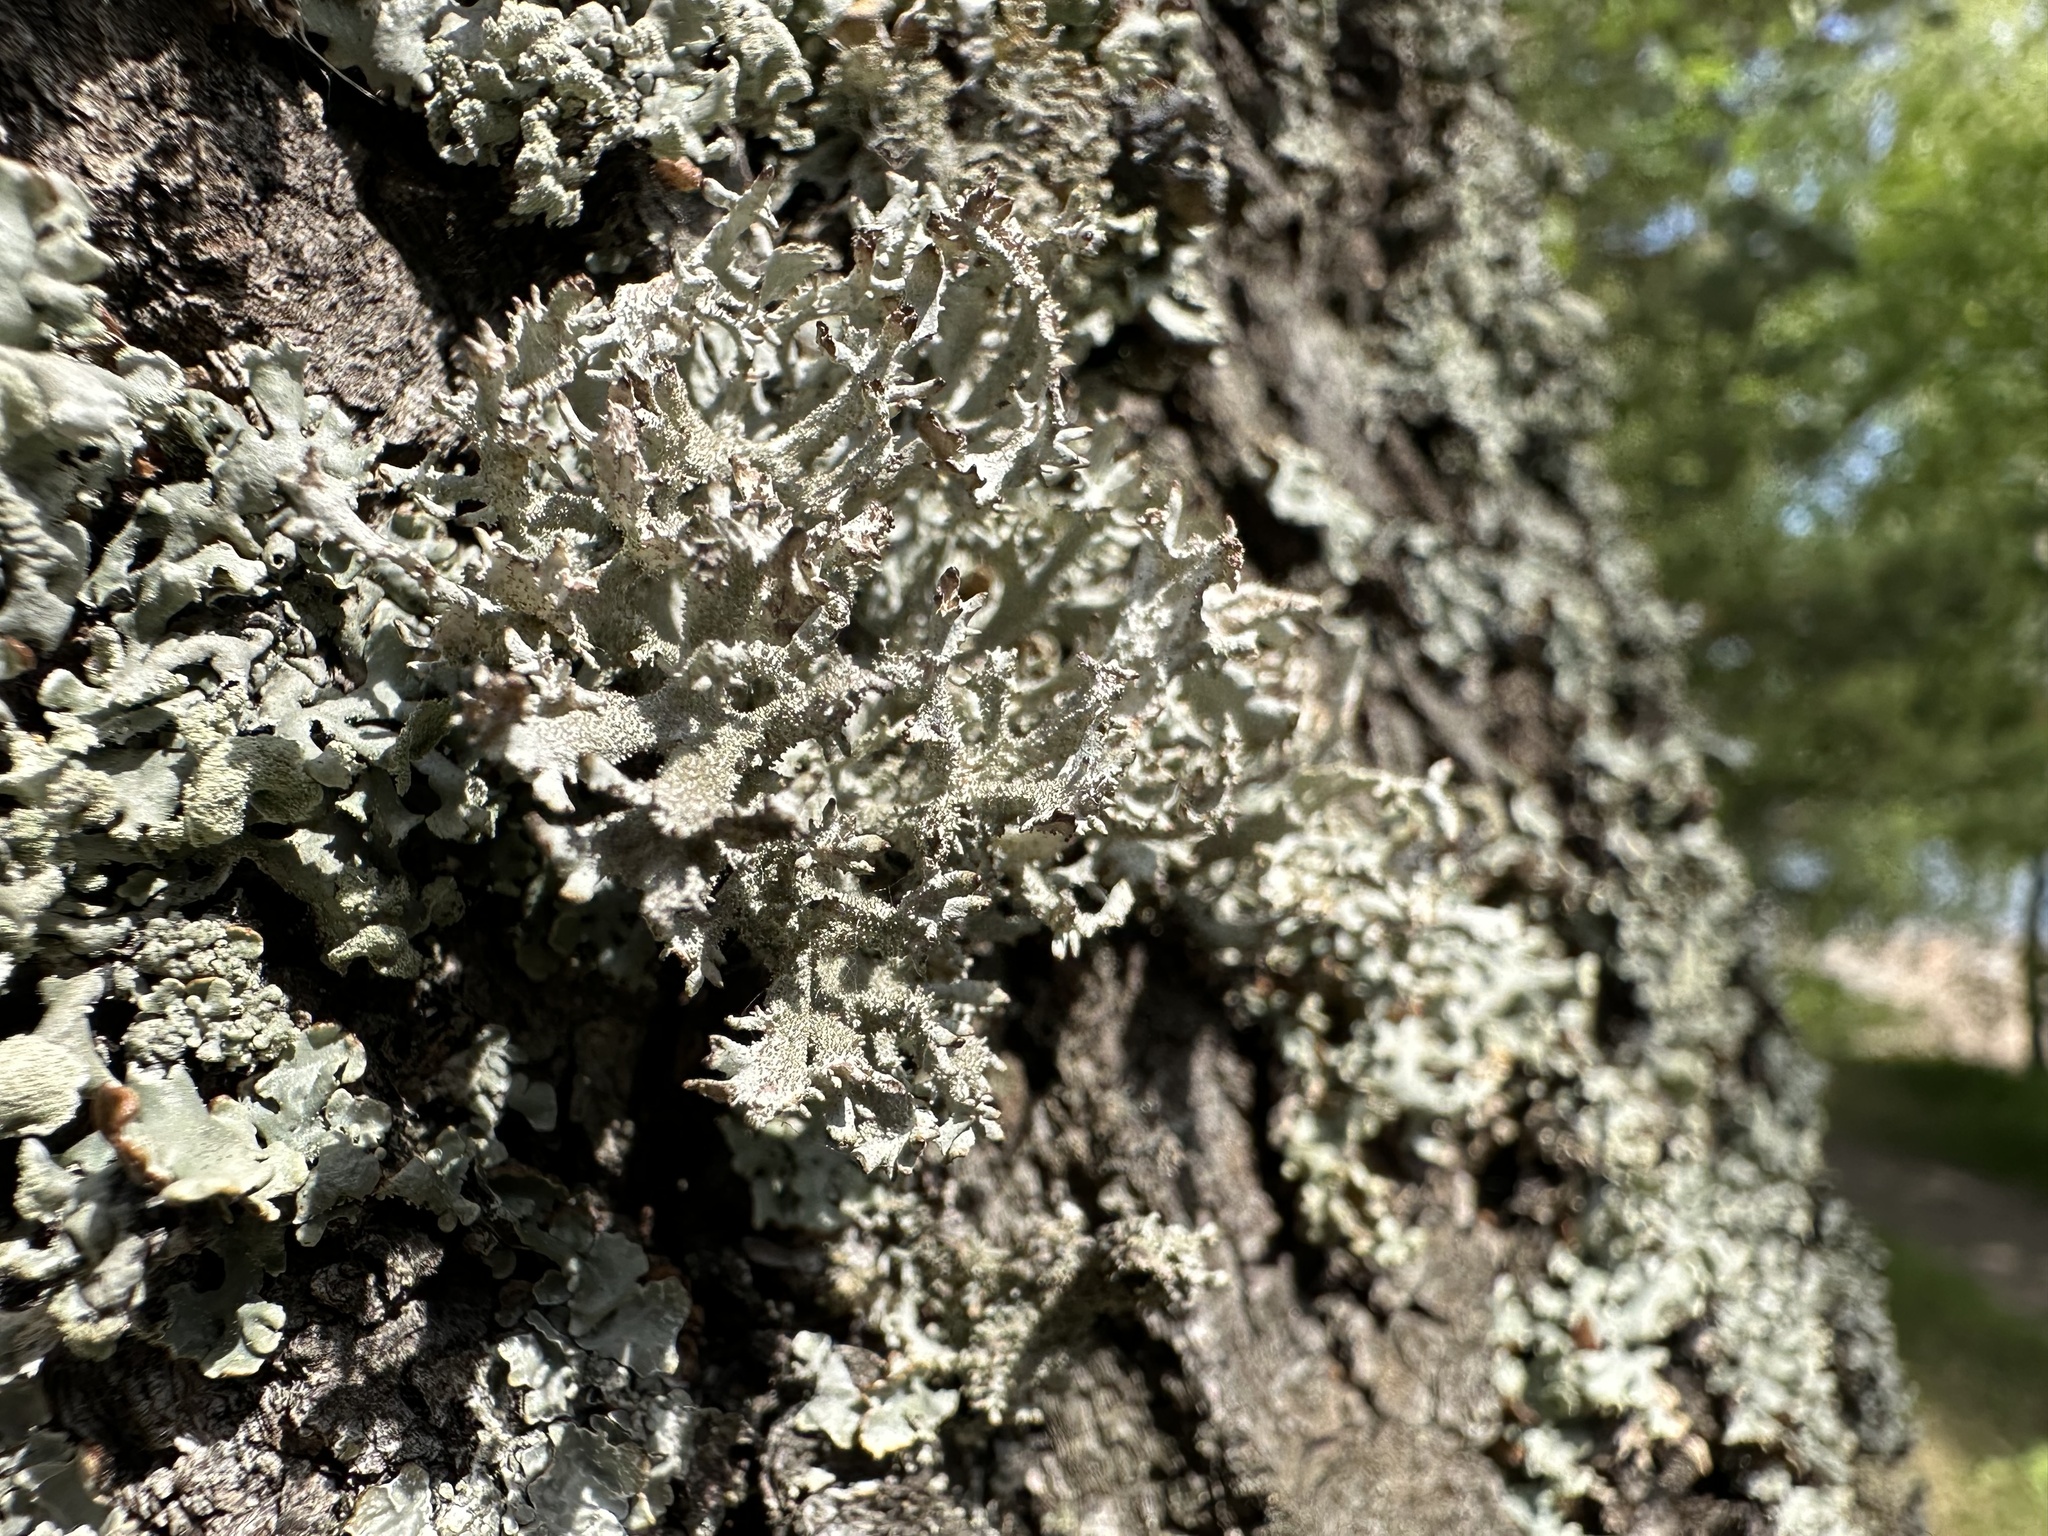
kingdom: Fungi
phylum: Ascomycota
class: Lecanoromycetes
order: Lecanorales
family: Parmeliaceae
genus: Pseudevernia
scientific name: Pseudevernia furfuracea
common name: Tree moss
